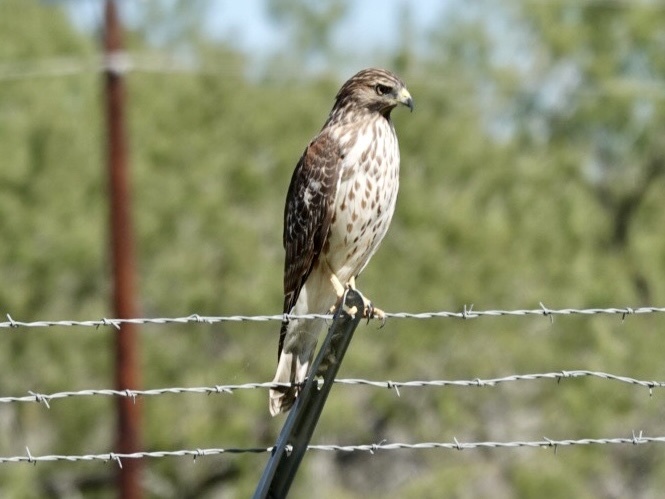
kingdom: Animalia
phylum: Chordata
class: Aves
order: Accipitriformes
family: Accipitridae
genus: Buteo
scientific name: Buteo lineatus
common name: Red-shouldered hawk
